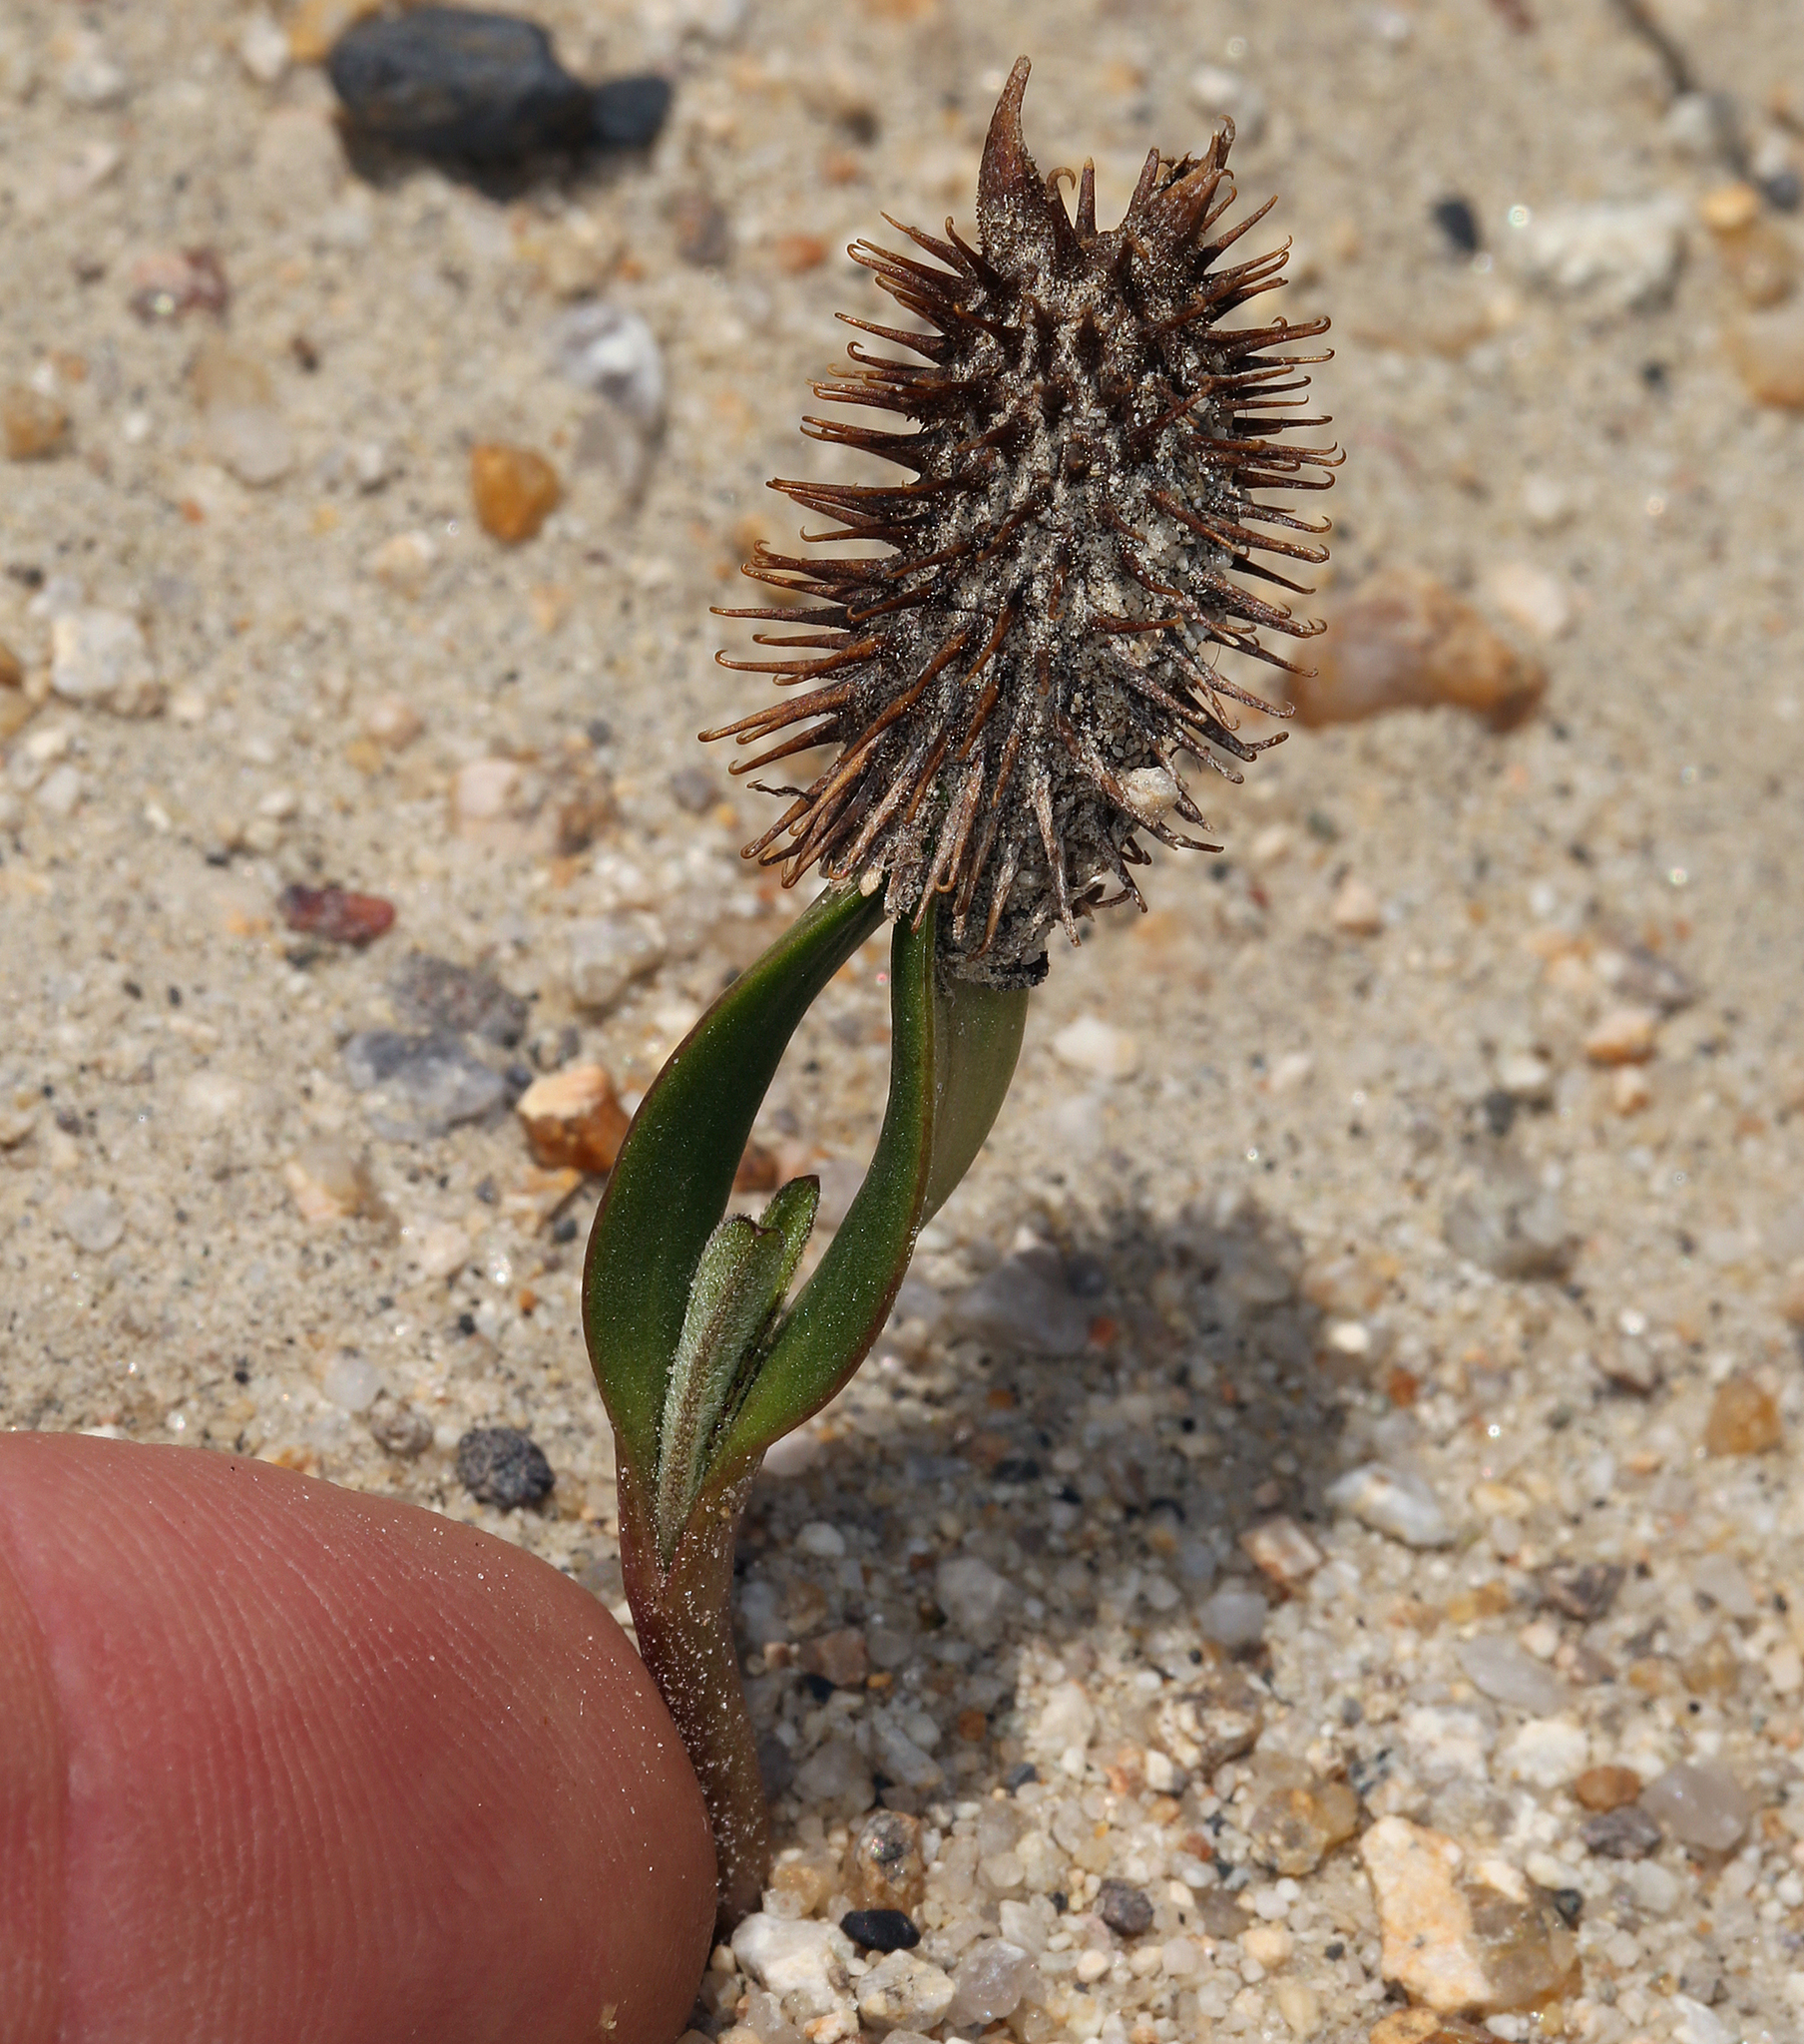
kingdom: Plantae
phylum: Tracheophyta
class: Magnoliopsida
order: Asterales
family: Asteraceae
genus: Xanthium
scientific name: Xanthium strumarium
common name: Rough cocklebur
